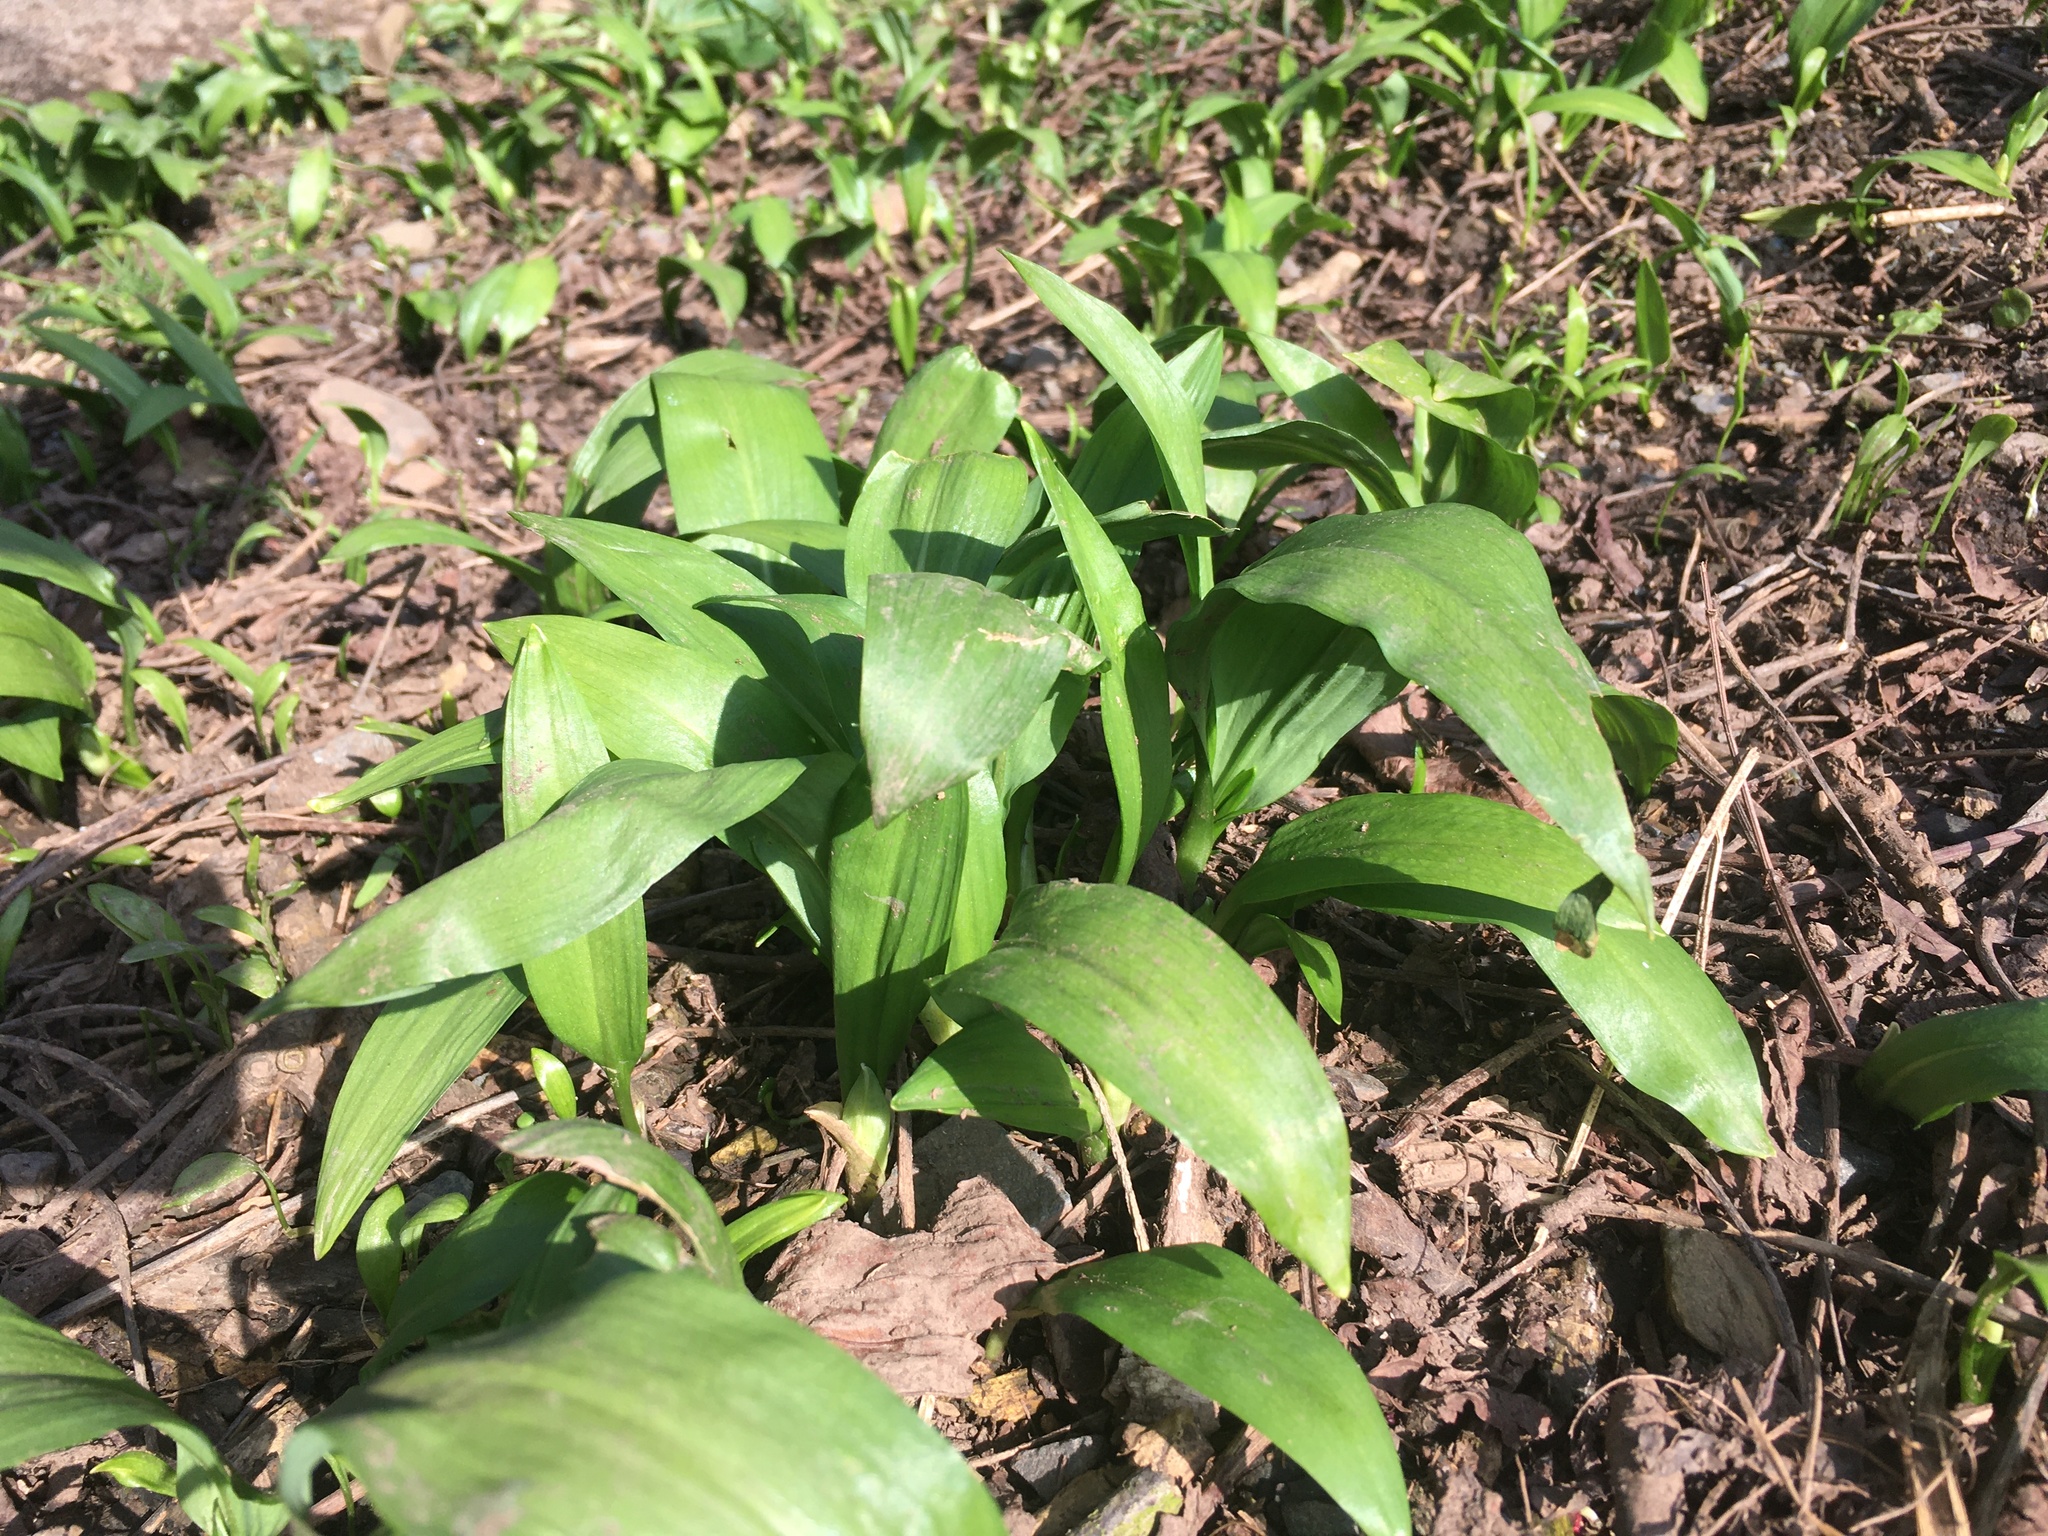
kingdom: Plantae
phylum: Tracheophyta
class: Liliopsida
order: Asparagales
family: Amaryllidaceae
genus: Allium
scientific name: Allium ursinum
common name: Ramsons
